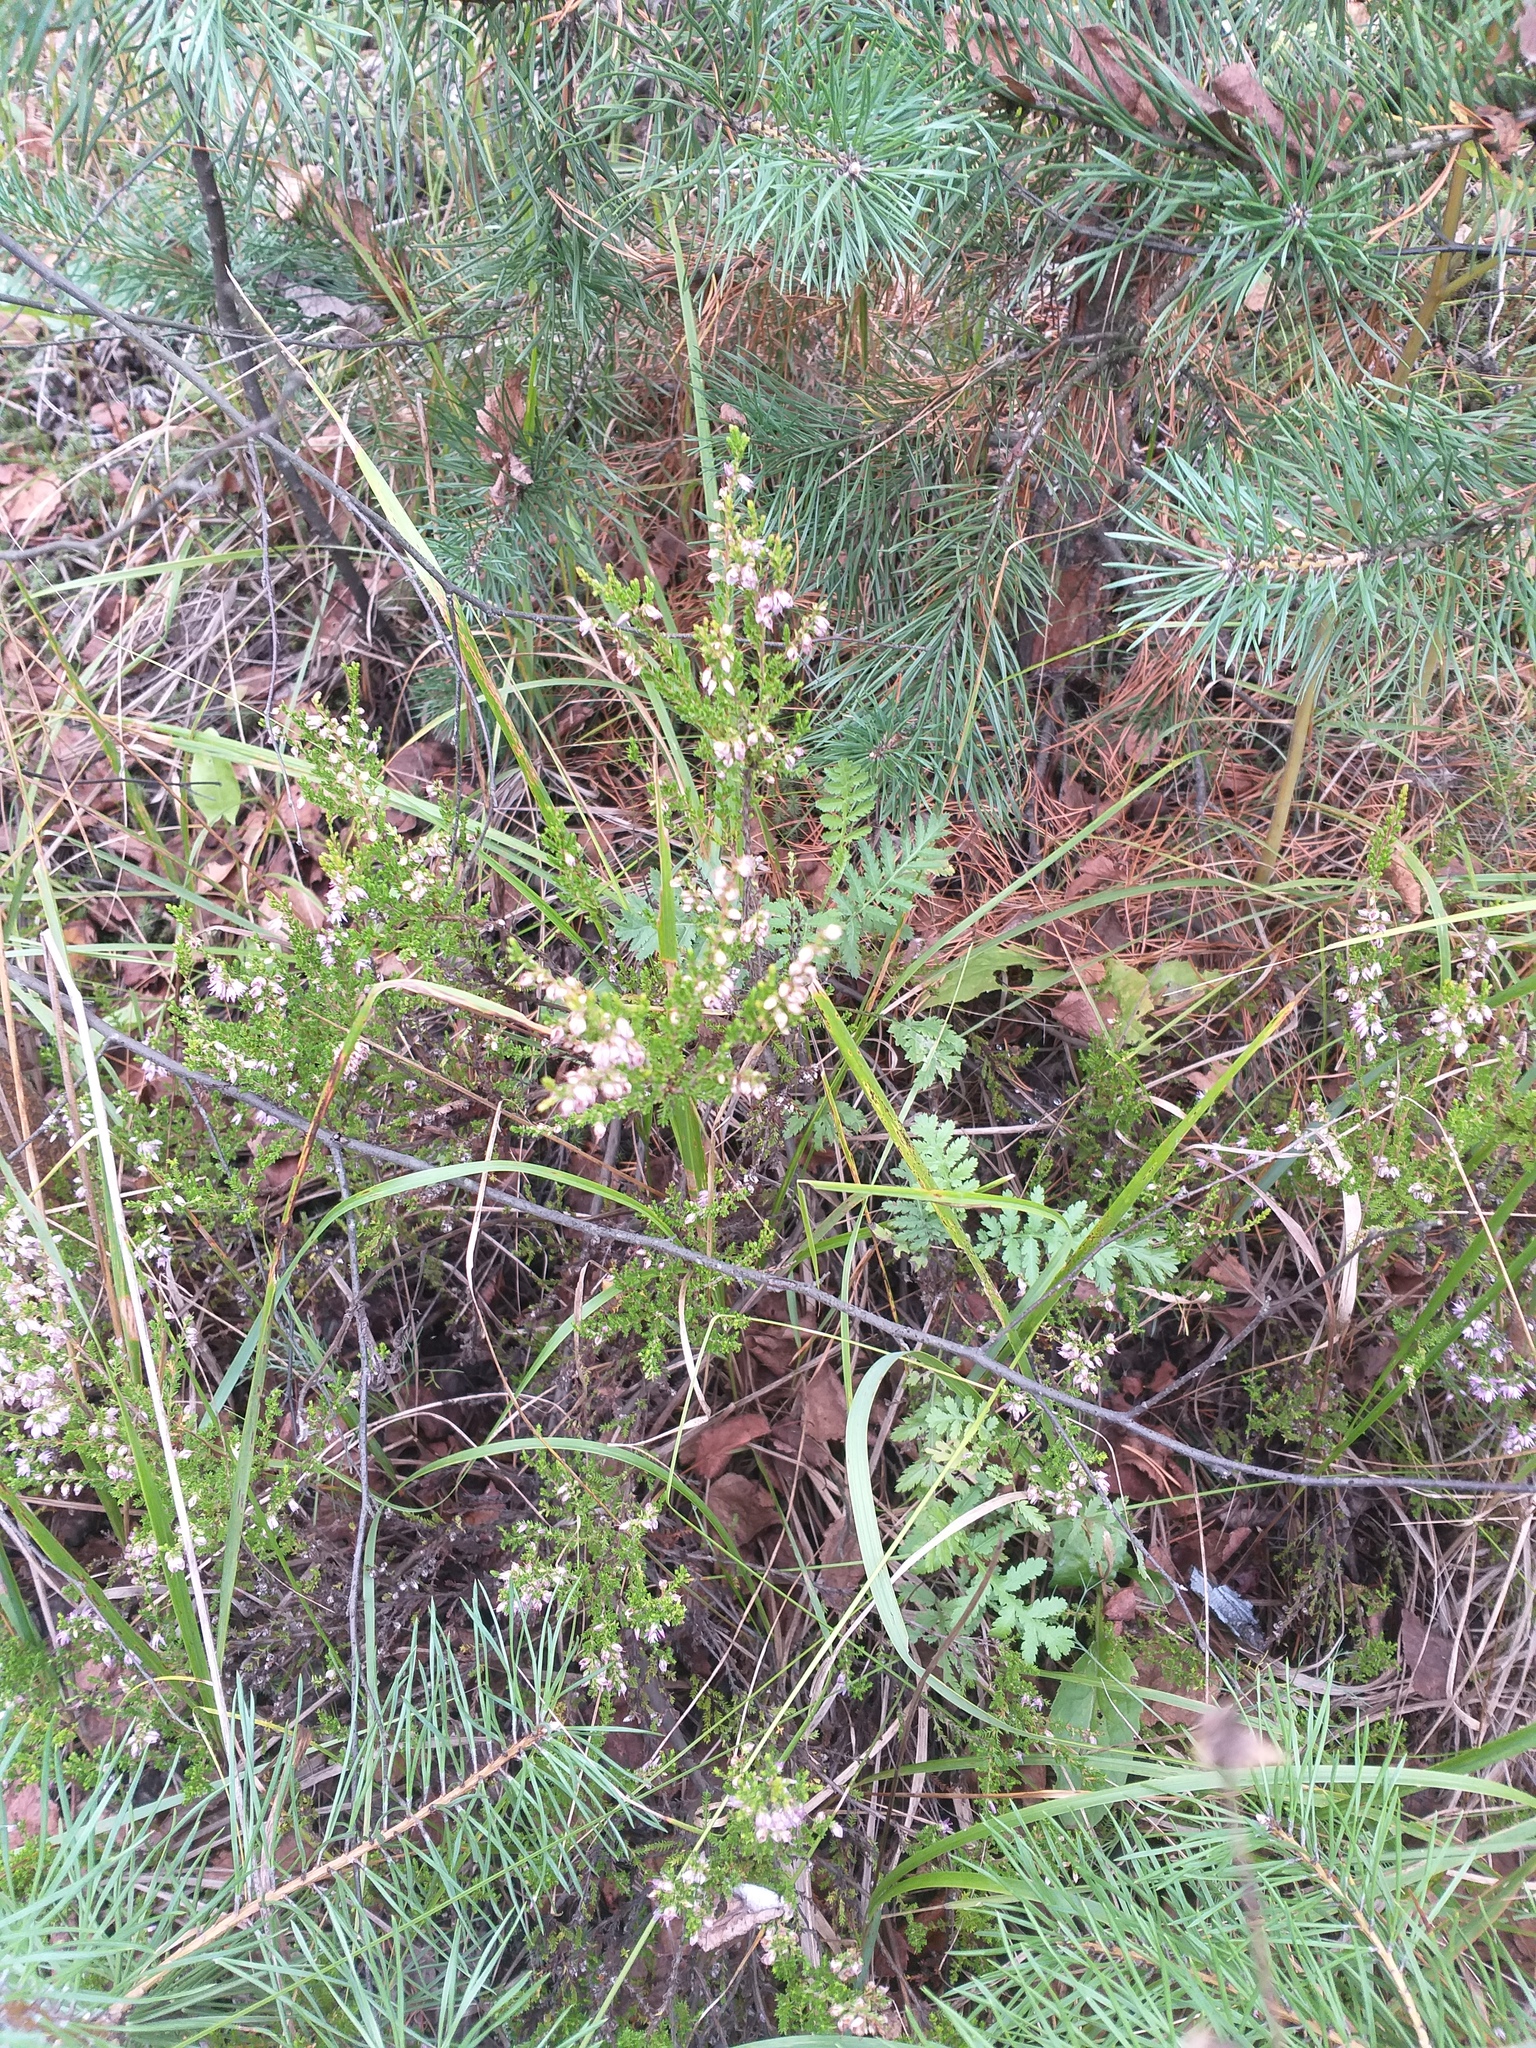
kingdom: Plantae
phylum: Tracheophyta
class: Magnoliopsida
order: Ericales
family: Ericaceae
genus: Calluna
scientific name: Calluna vulgaris
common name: Heather
